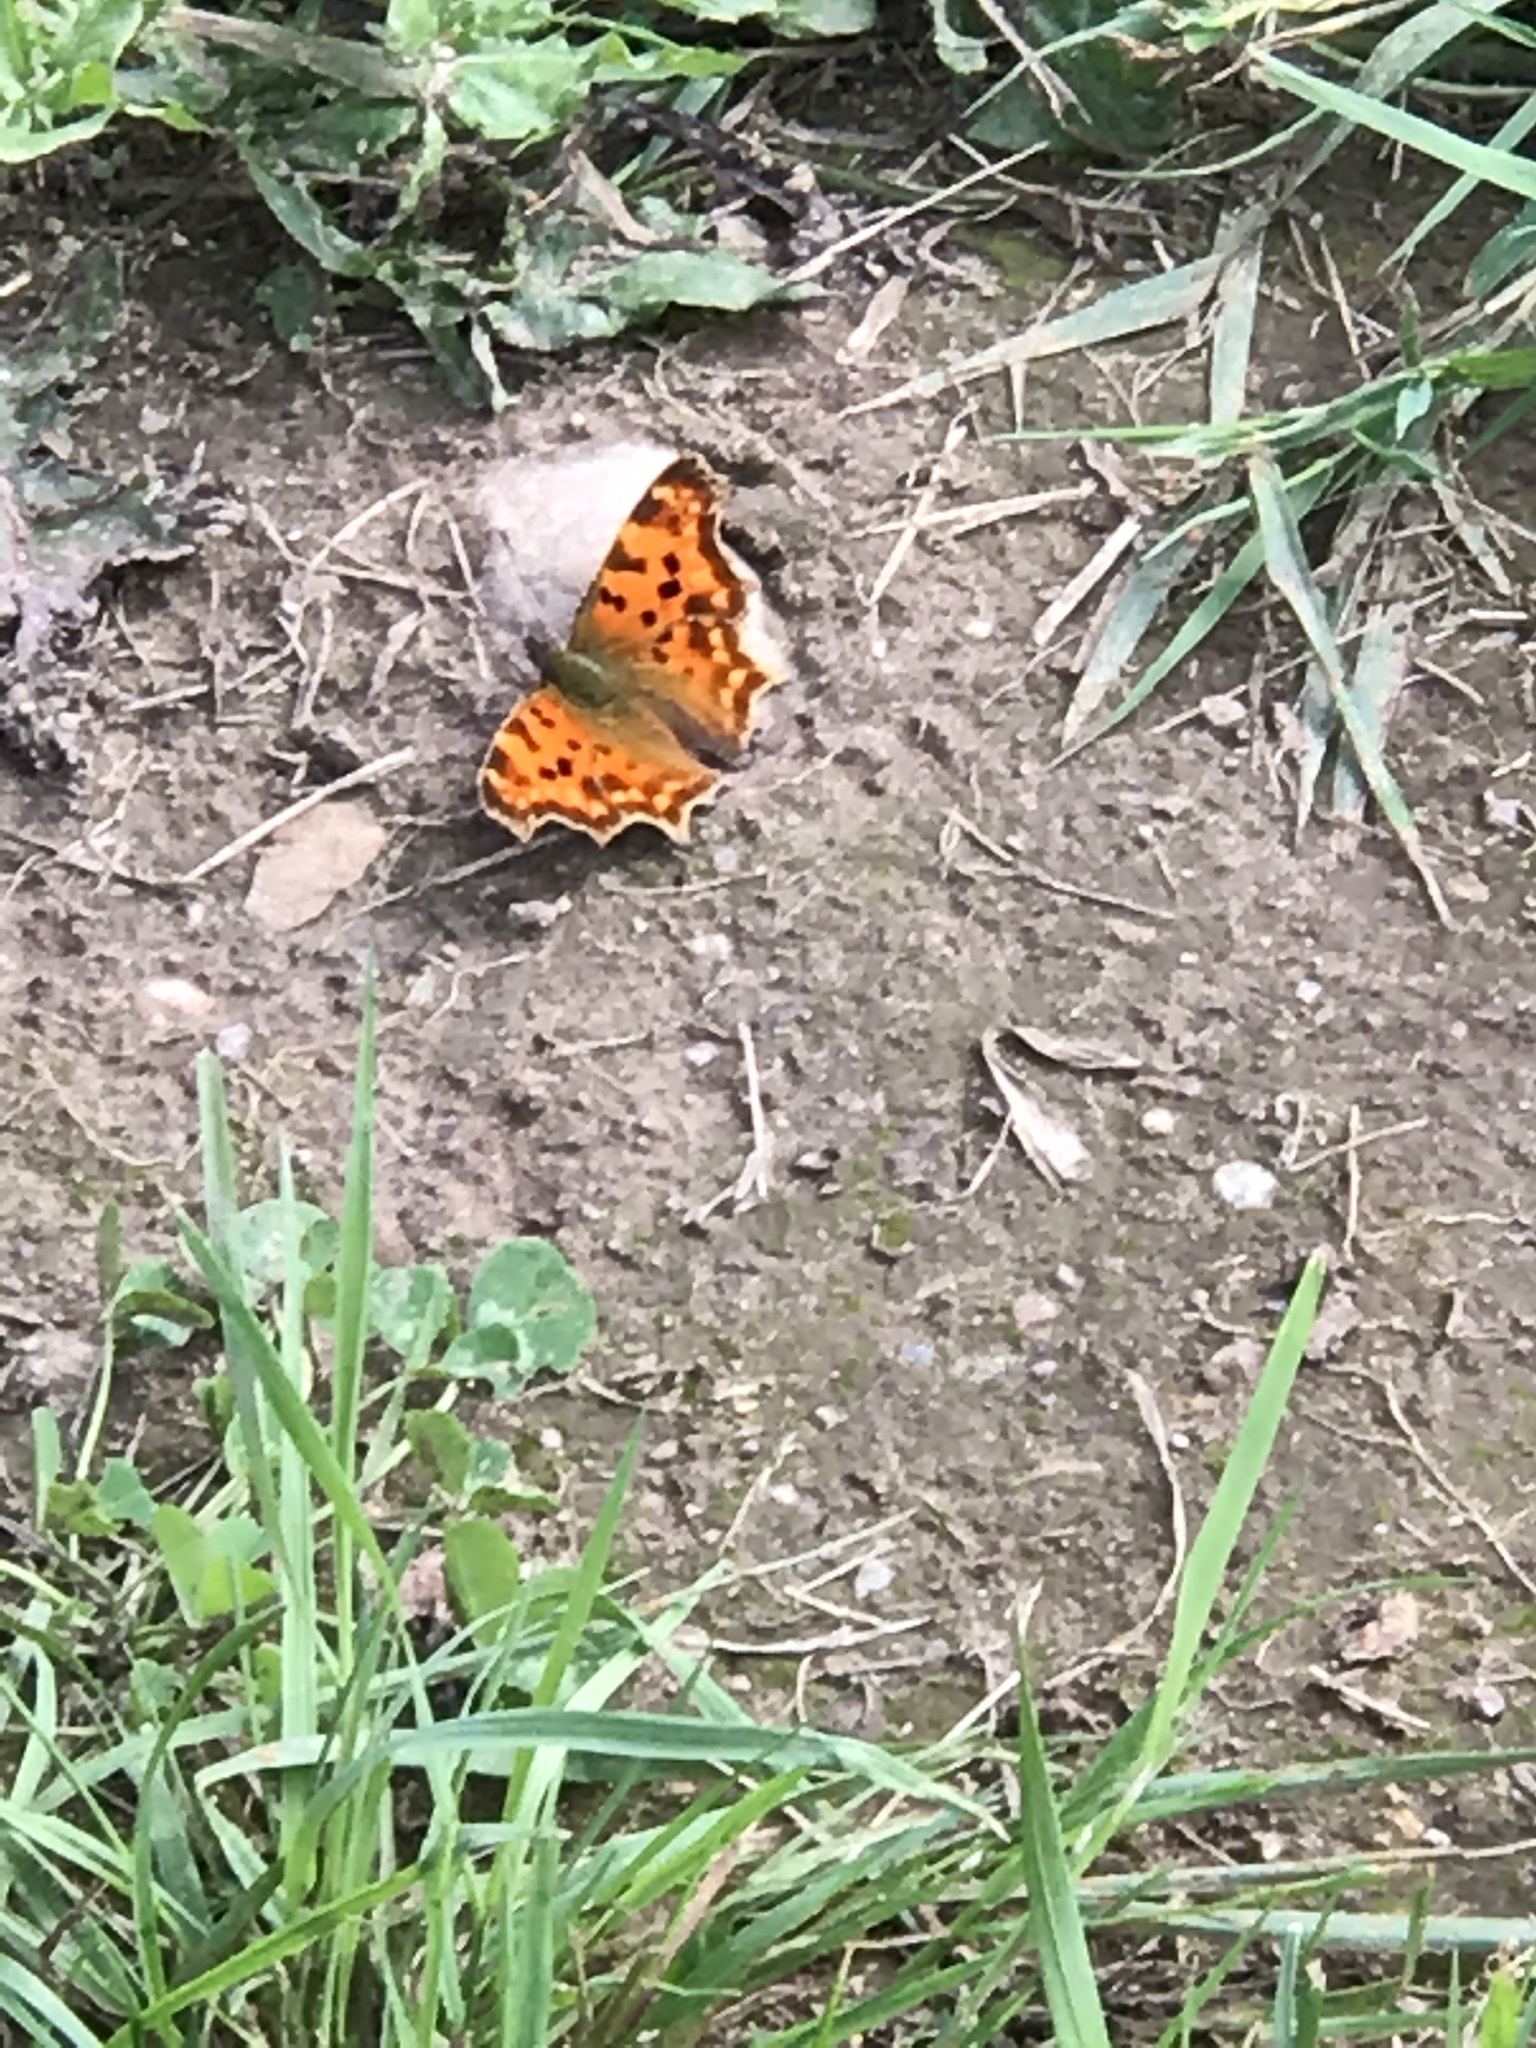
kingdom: Animalia
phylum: Arthropoda
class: Insecta
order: Lepidoptera
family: Nymphalidae
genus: Polygonia
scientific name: Polygonia c-album
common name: Comma
